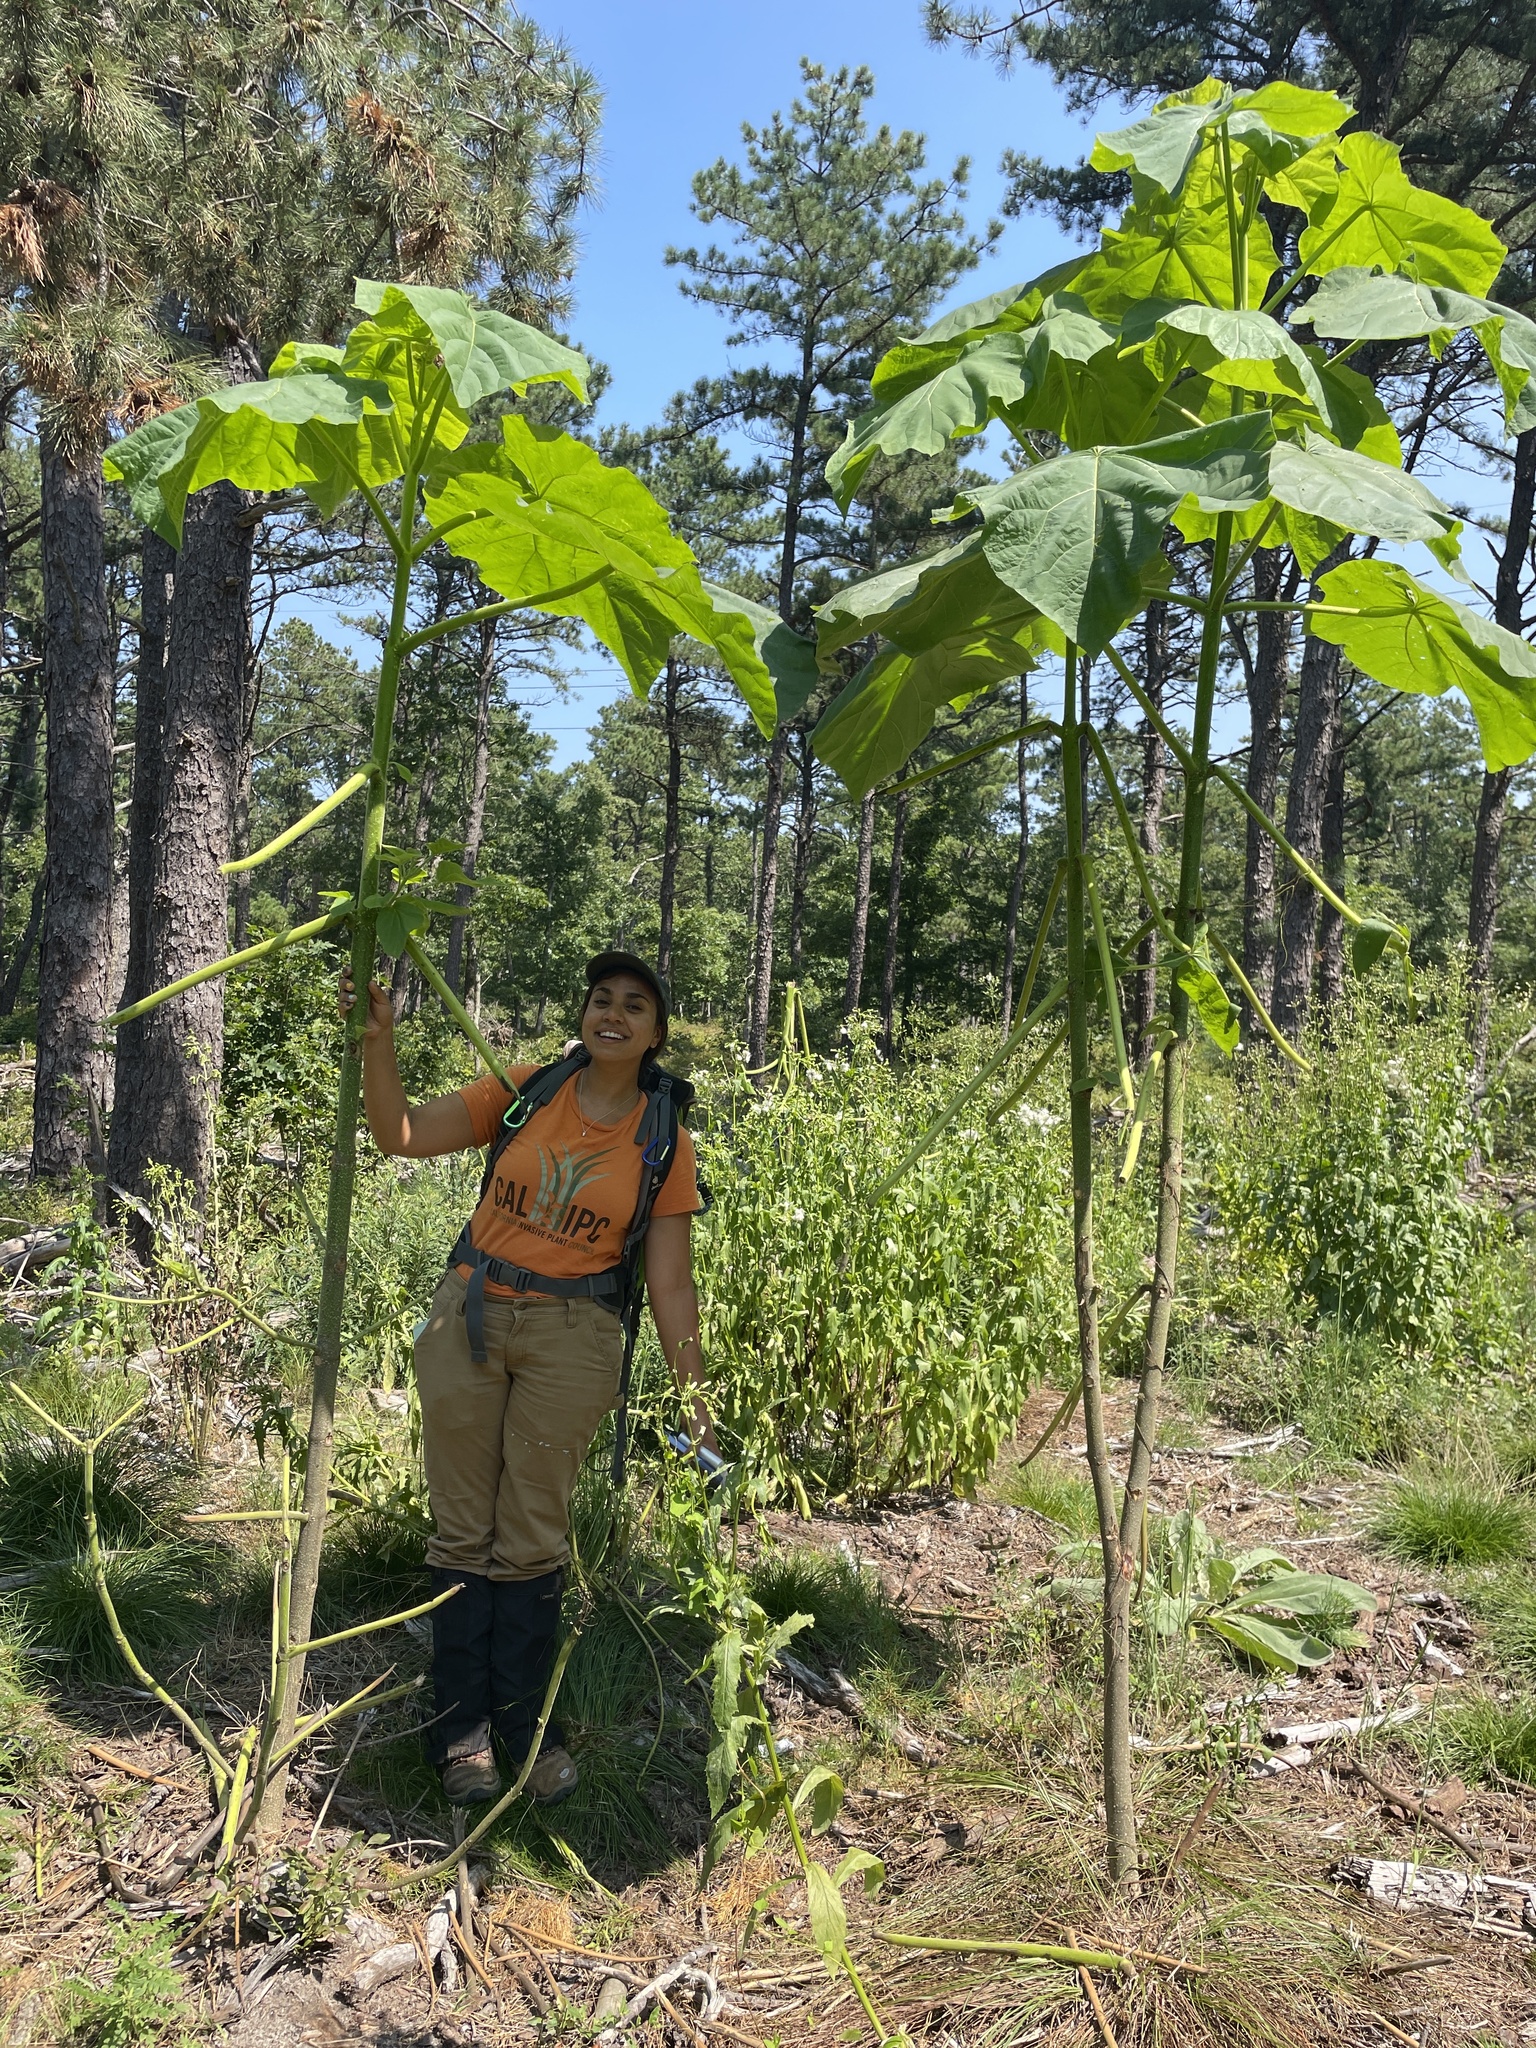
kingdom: Plantae
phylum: Tracheophyta
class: Magnoliopsida
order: Lamiales
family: Paulowniaceae
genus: Paulownia
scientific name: Paulownia tomentosa
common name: Foxglove-tree
